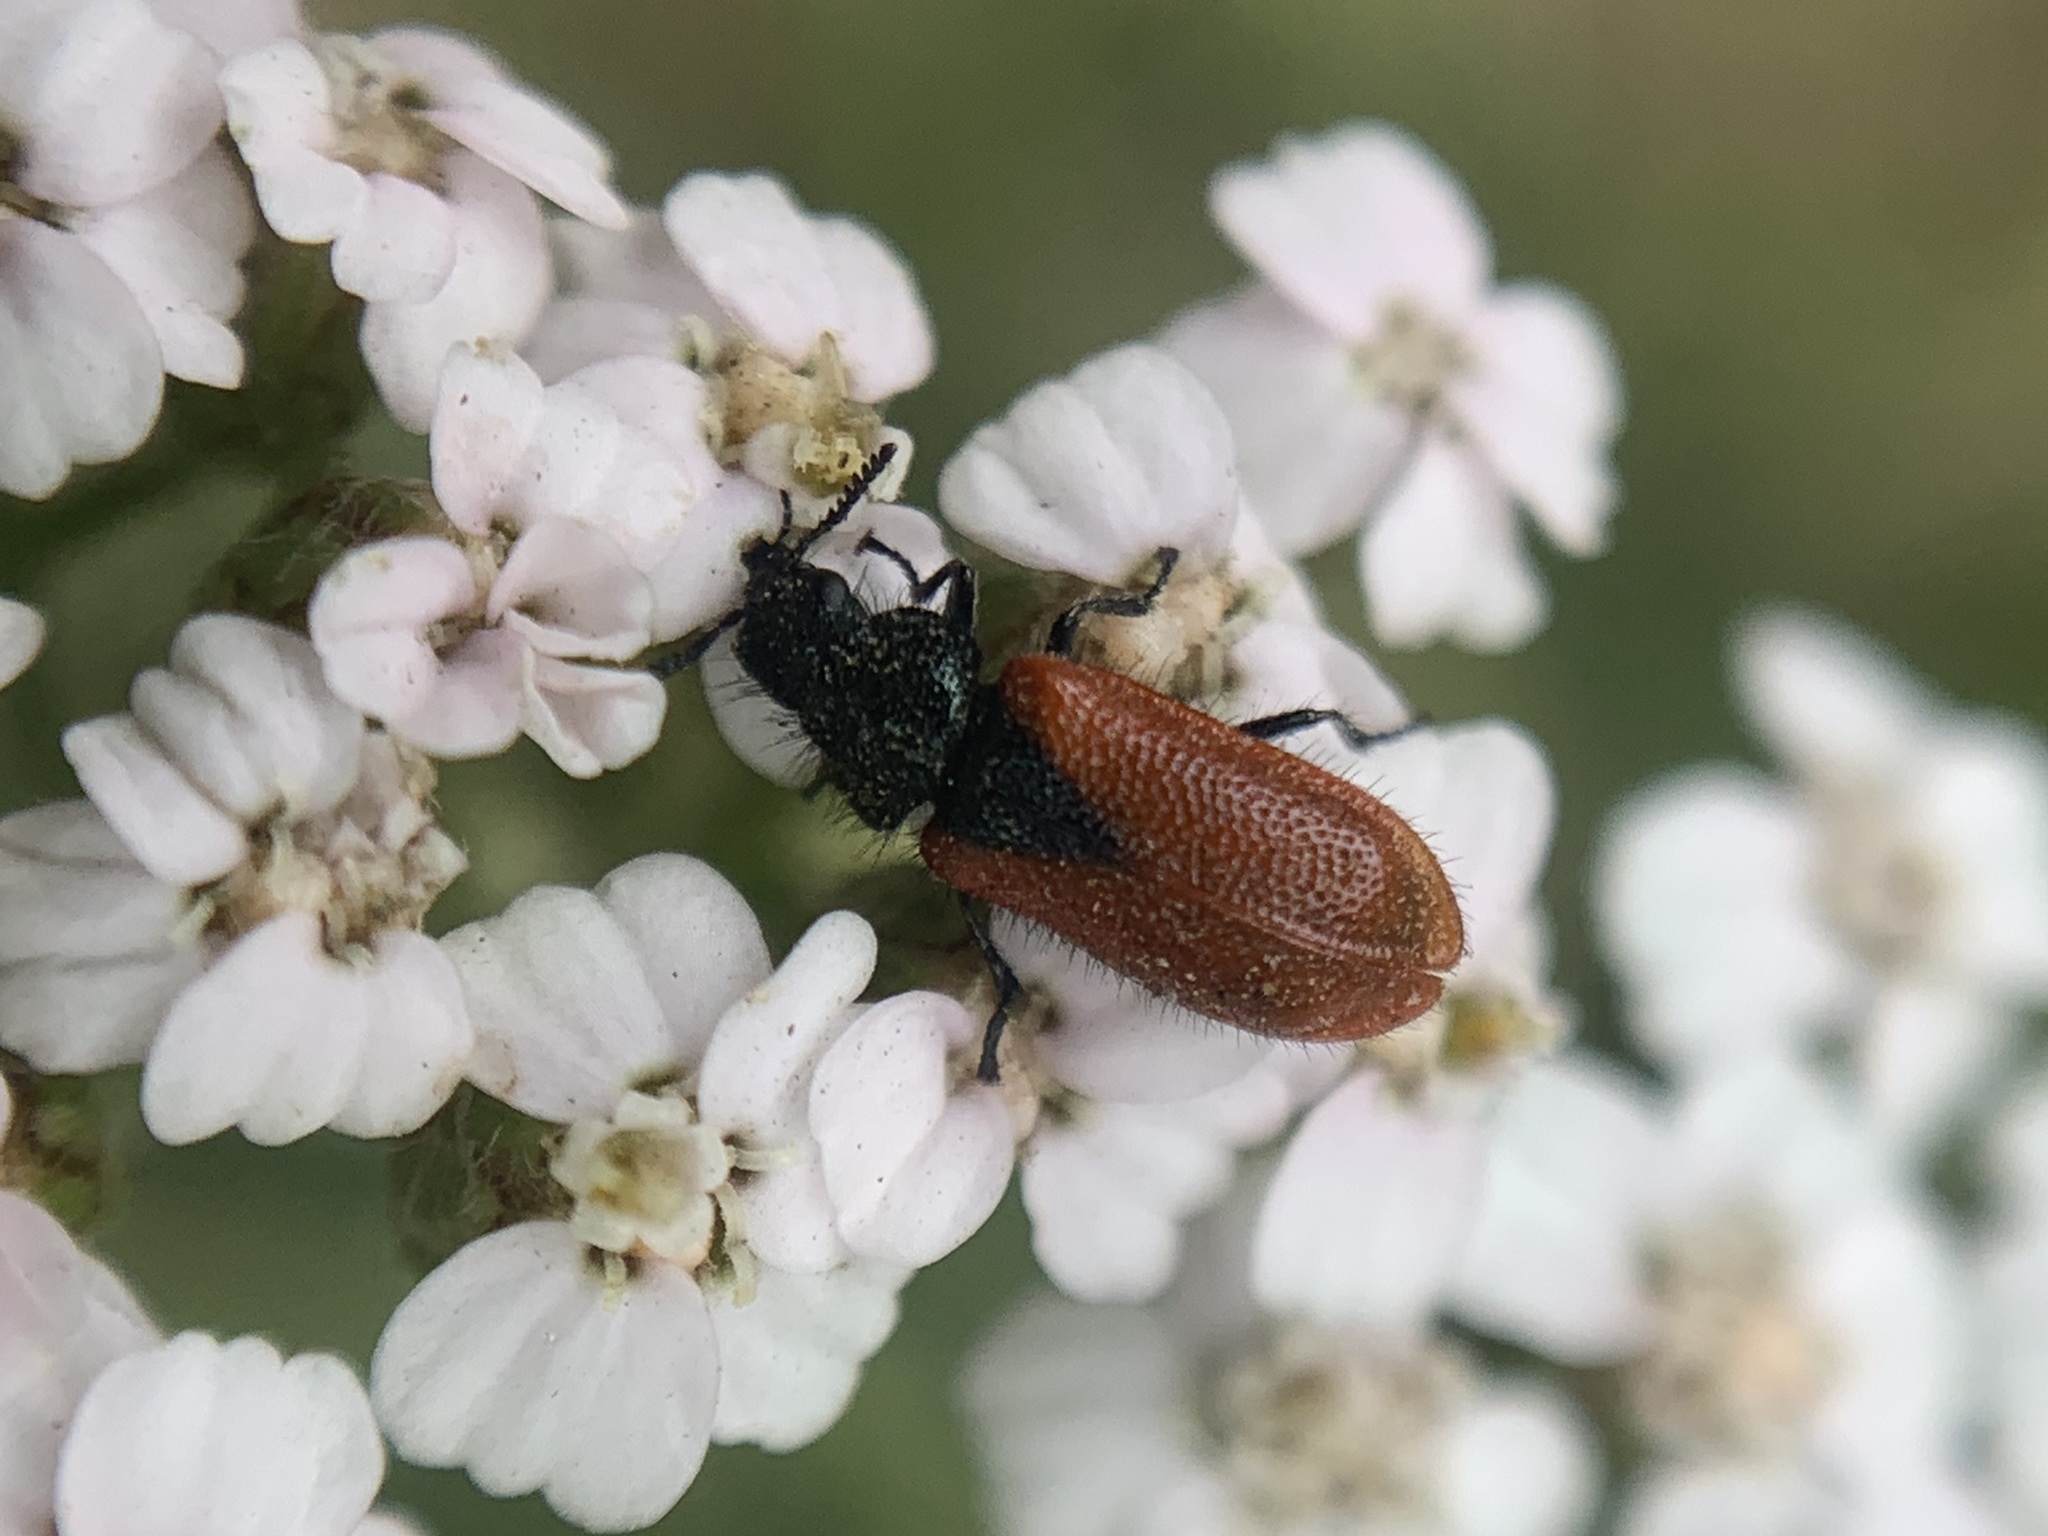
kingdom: Animalia
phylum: Arthropoda
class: Insecta
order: Coleoptera
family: Melyridae
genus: Arthrobrachus
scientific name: Arthrobrachus nigromaculatus
